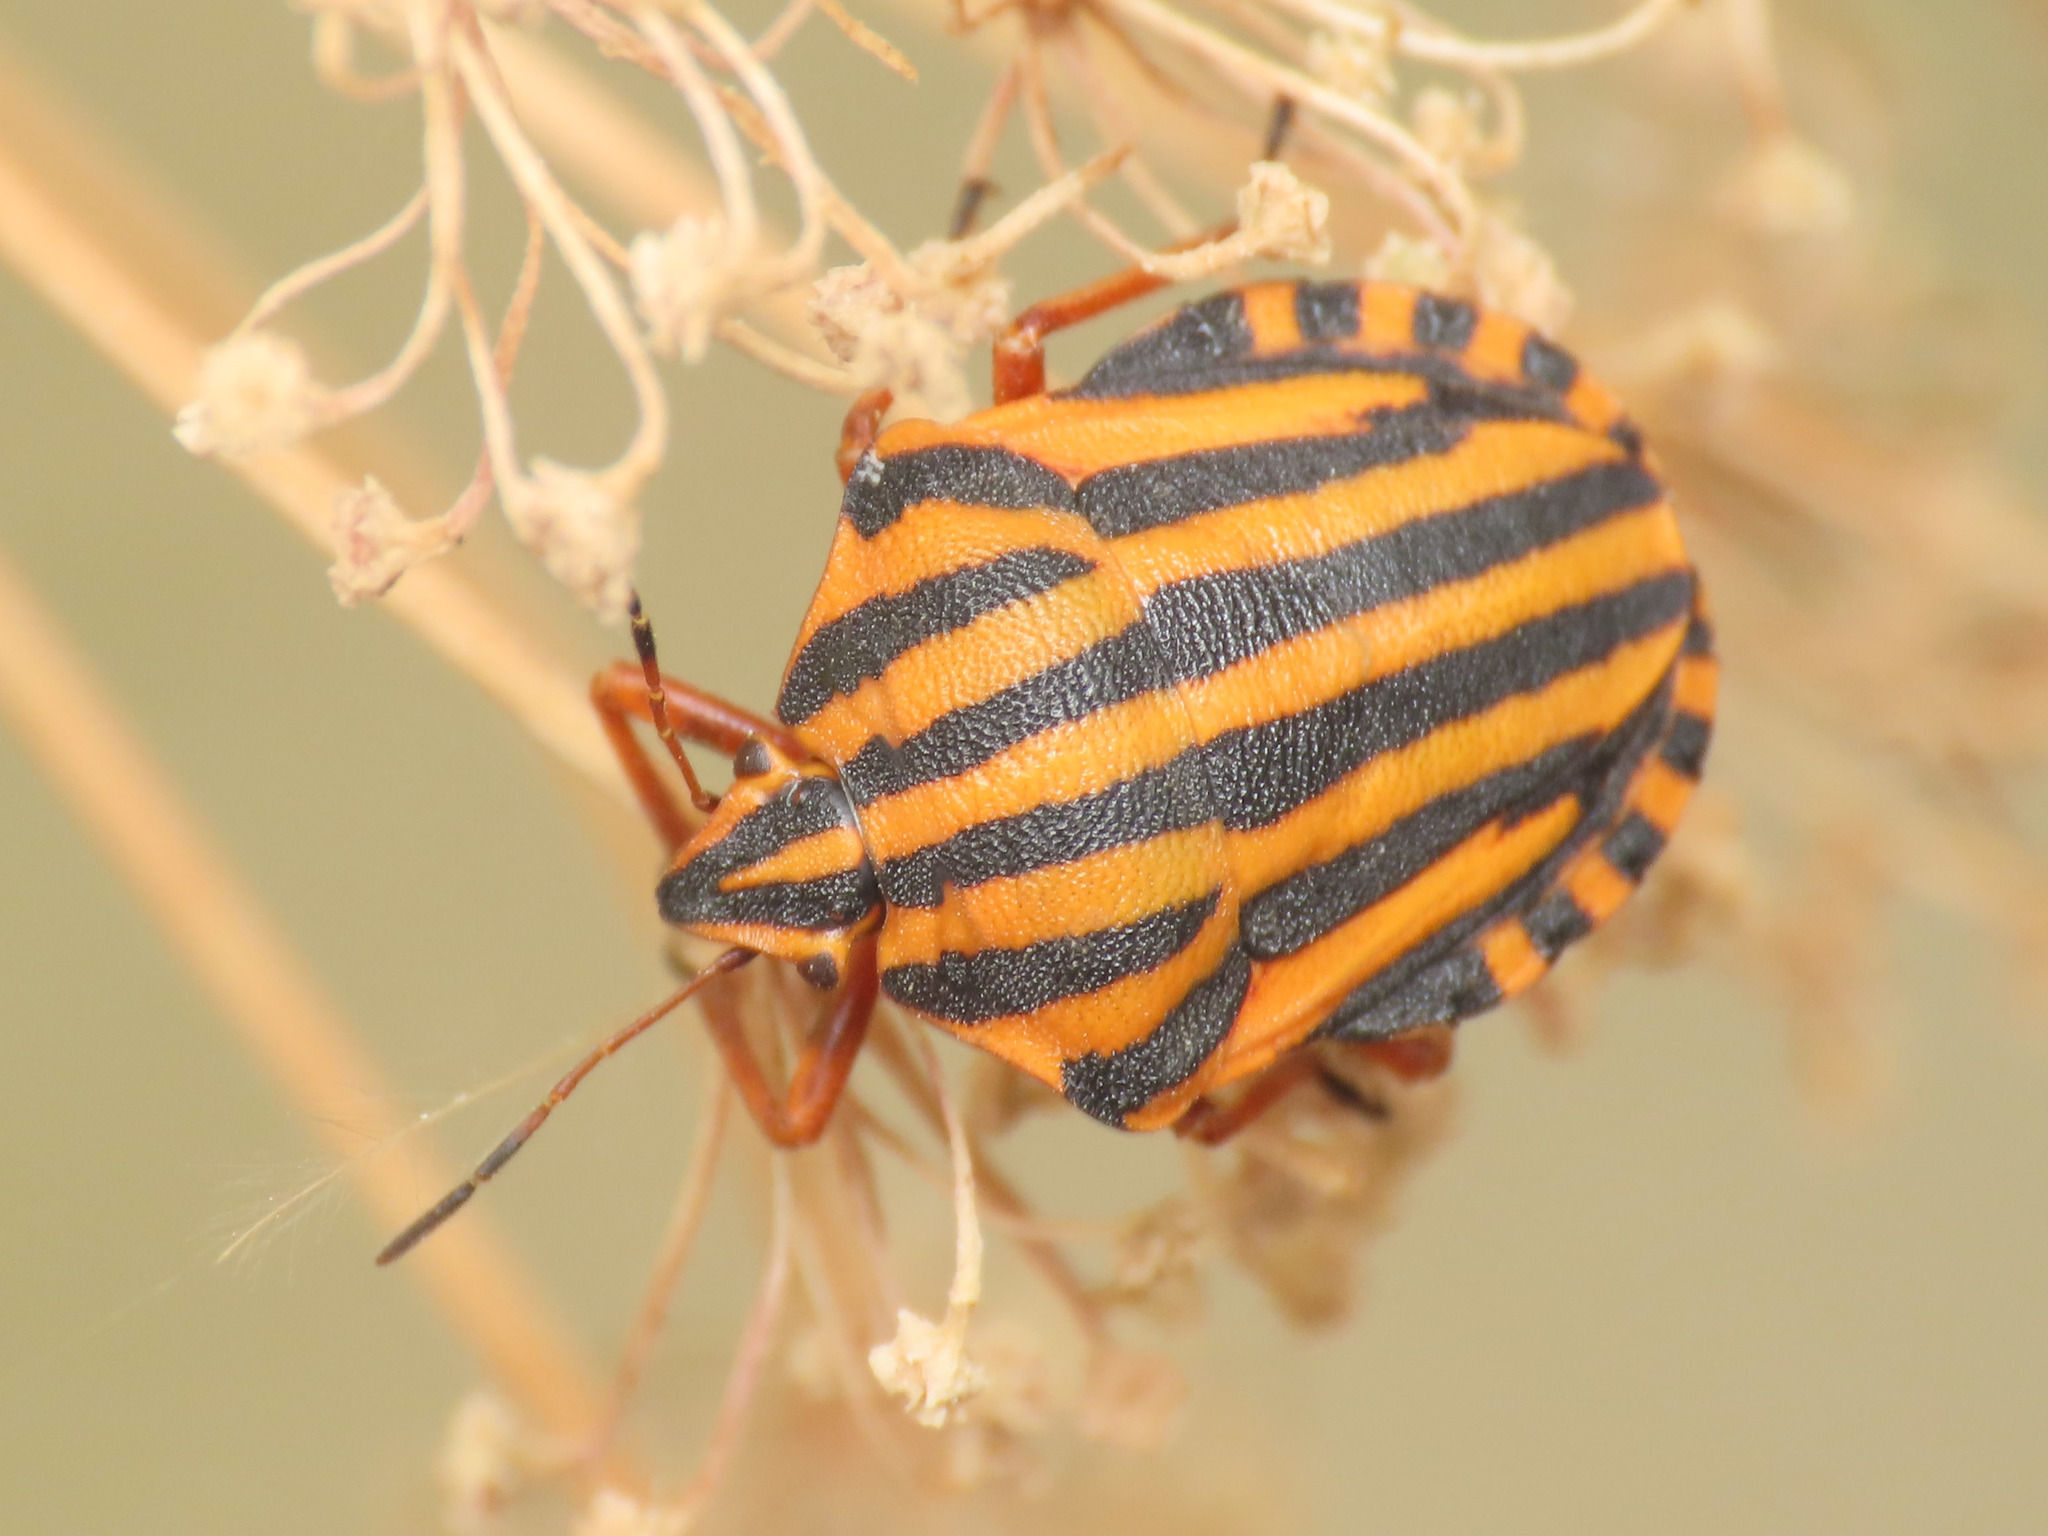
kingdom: Animalia
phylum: Arthropoda
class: Insecta
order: Hemiptera
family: Pentatomidae
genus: Graphosoma
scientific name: Graphosoma italicum
